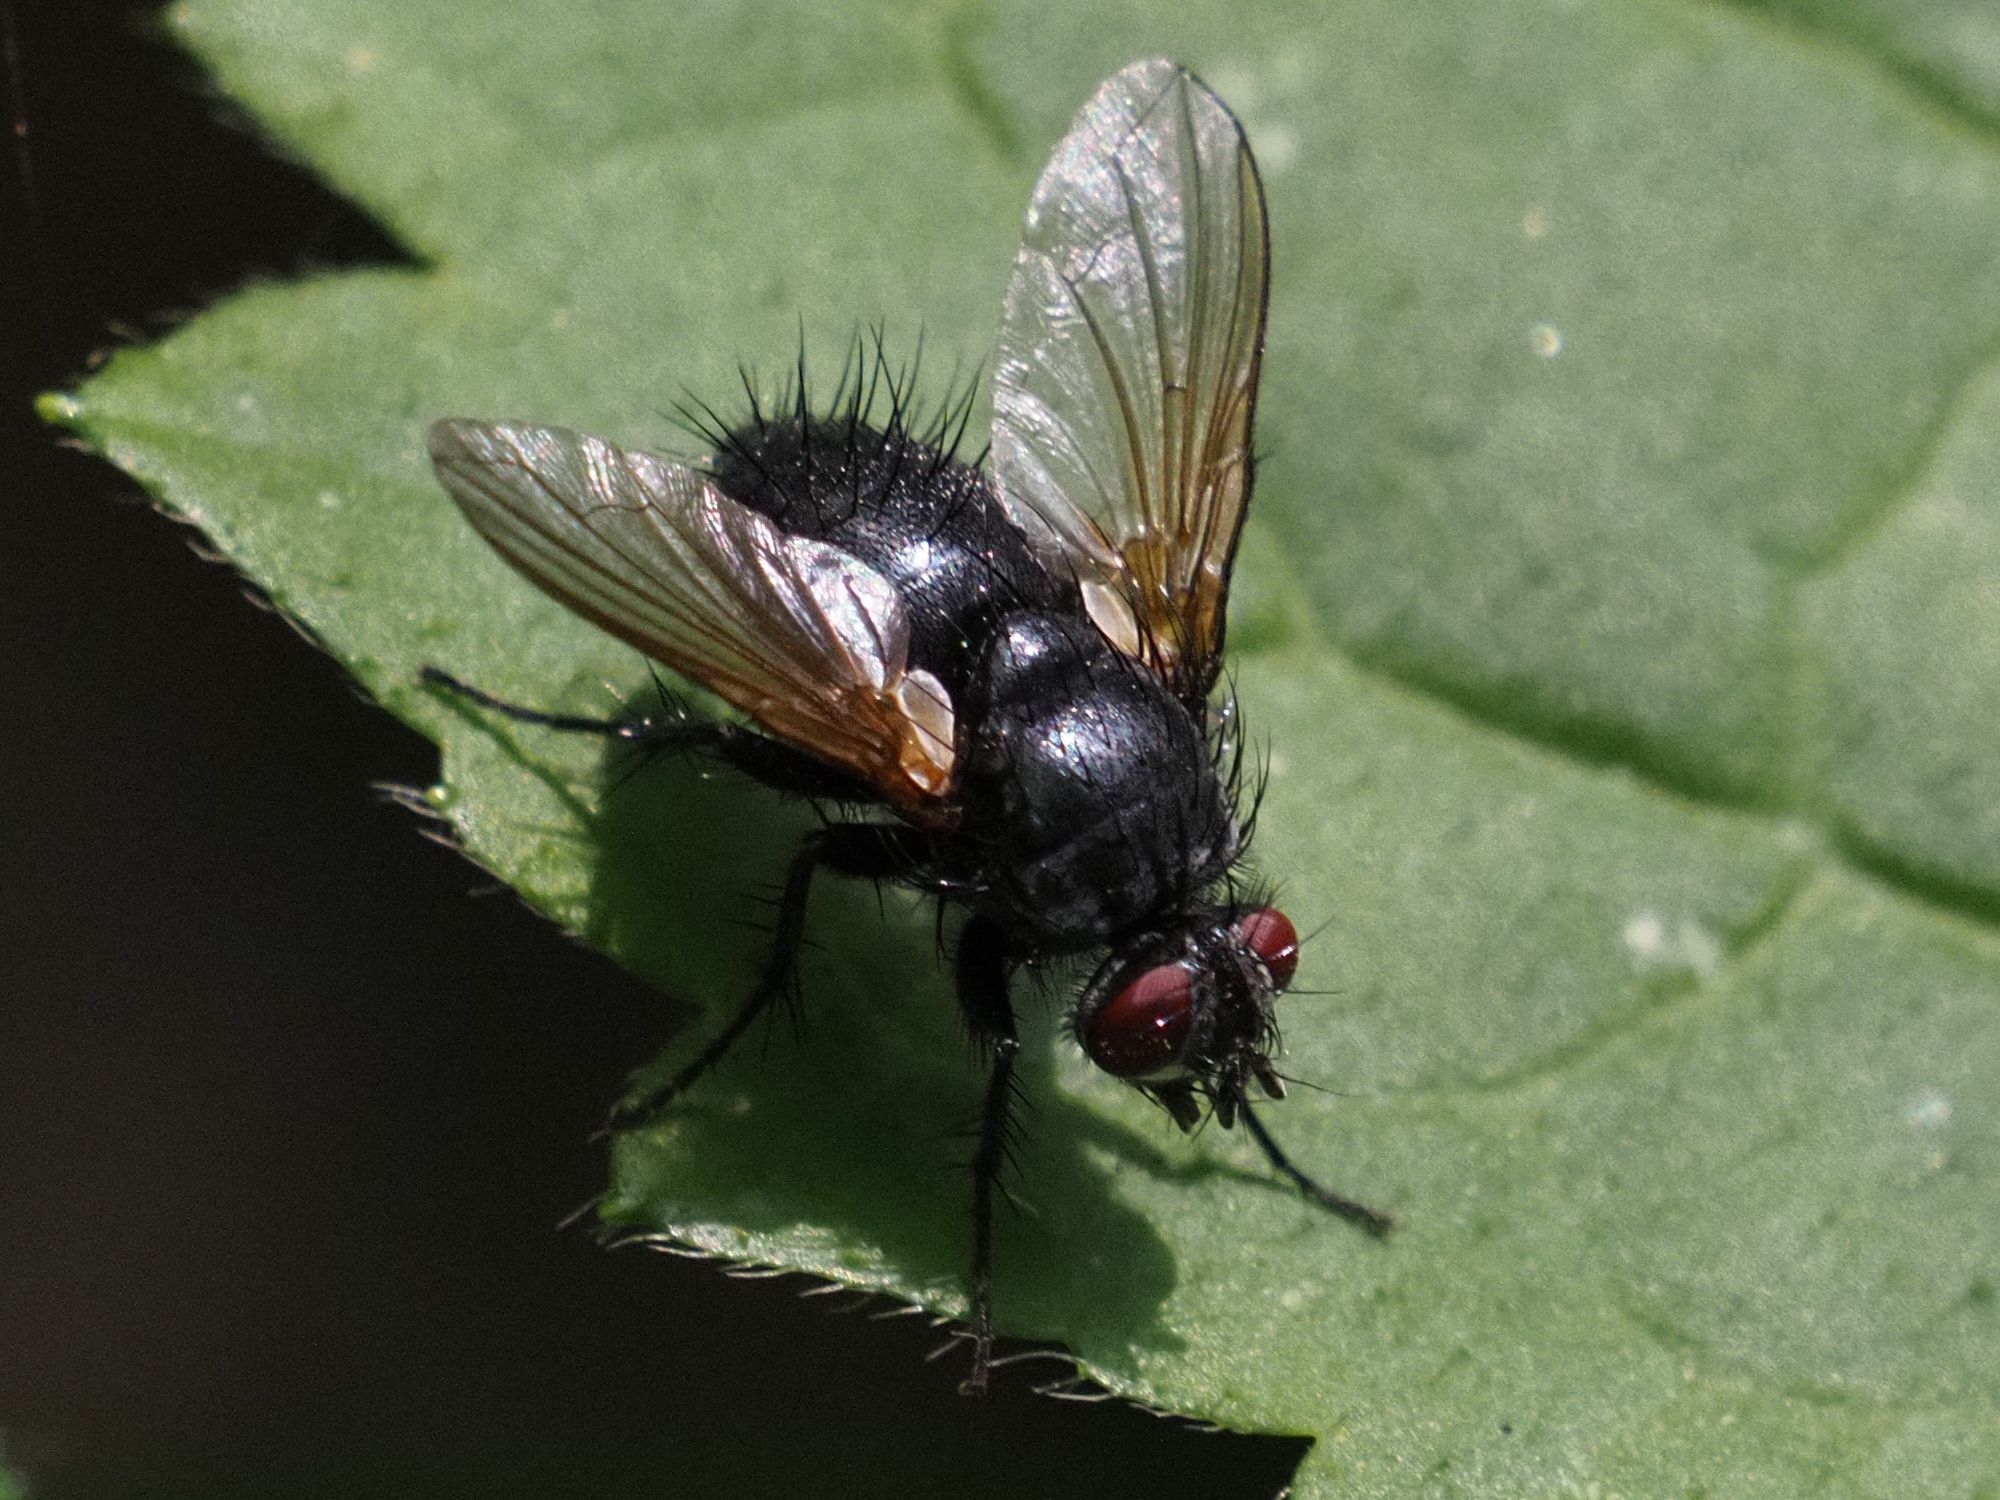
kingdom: Animalia
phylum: Arthropoda
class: Insecta
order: Diptera
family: Tachinidae
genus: Macquartia
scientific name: Macquartia praefica
